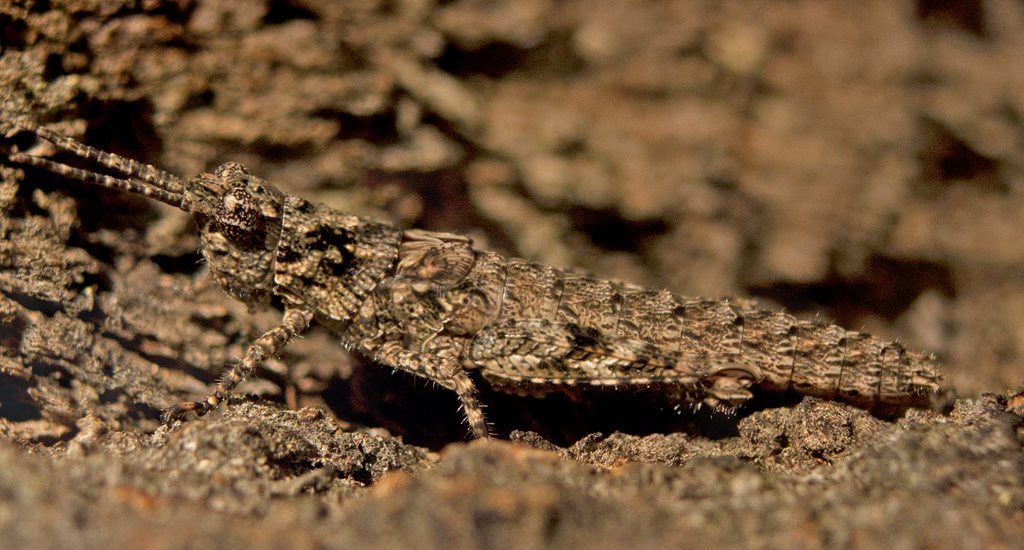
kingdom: Animalia
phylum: Arthropoda
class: Insecta
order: Orthoptera
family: Acrididae
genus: Coryphistes
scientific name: Coryphistes ruricola
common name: Bark-mimicking grasshopper
